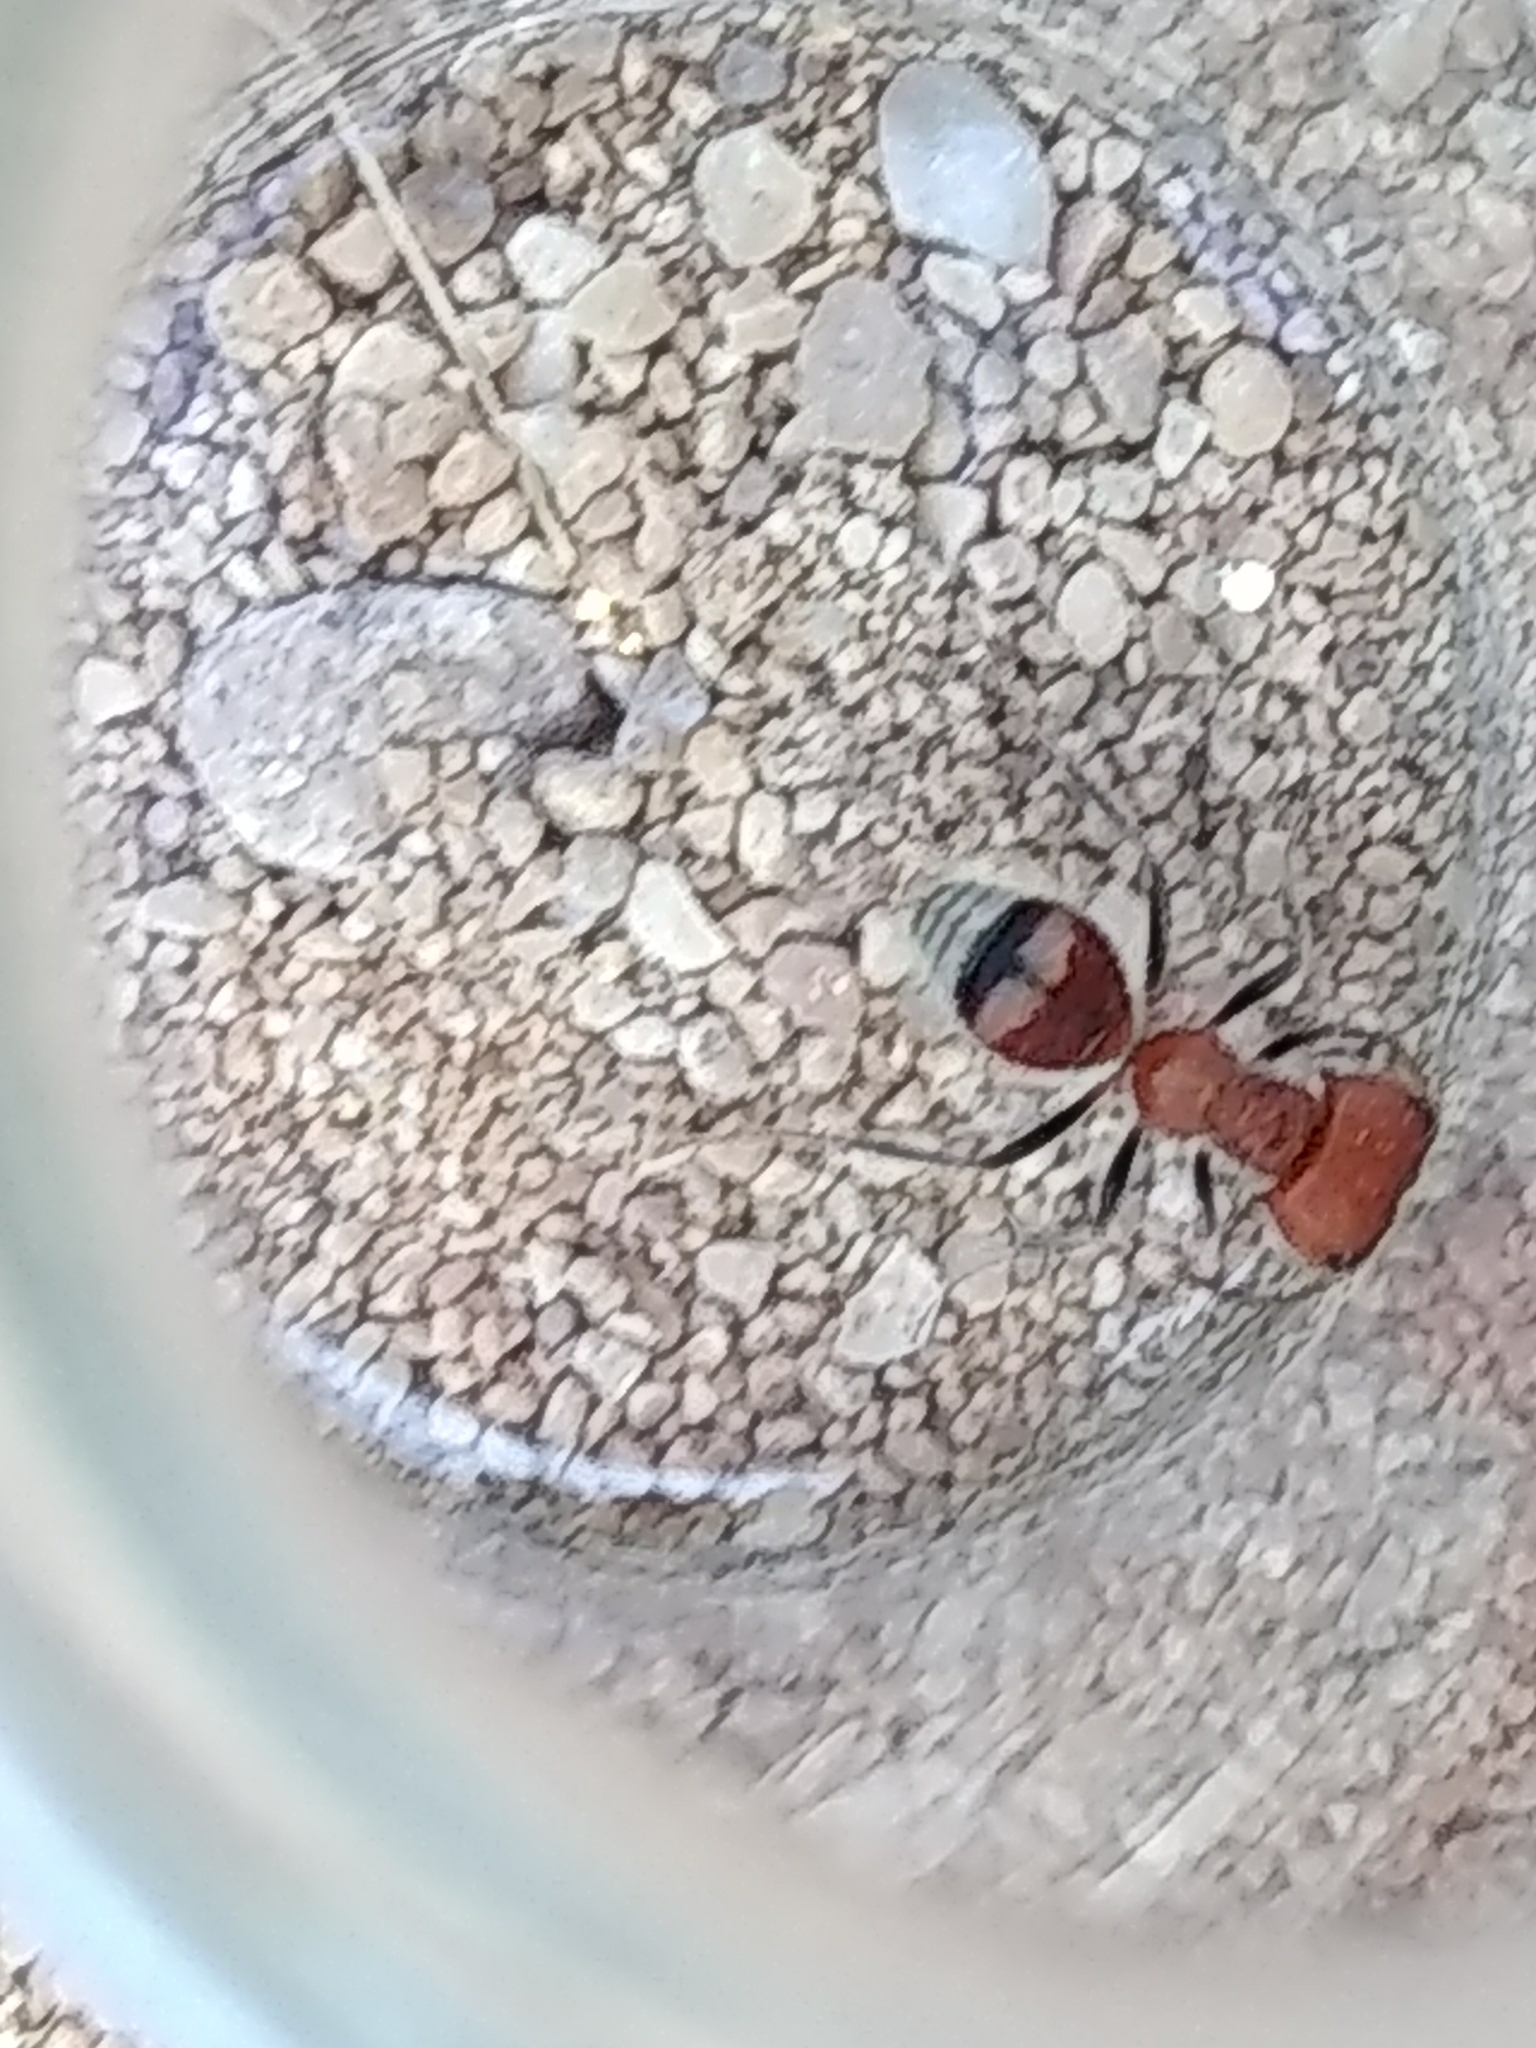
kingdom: Animalia
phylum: Arthropoda
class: Insecta
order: Hymenoptera
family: Mutillidae
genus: Myrmilloides
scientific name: Myrmilloides
